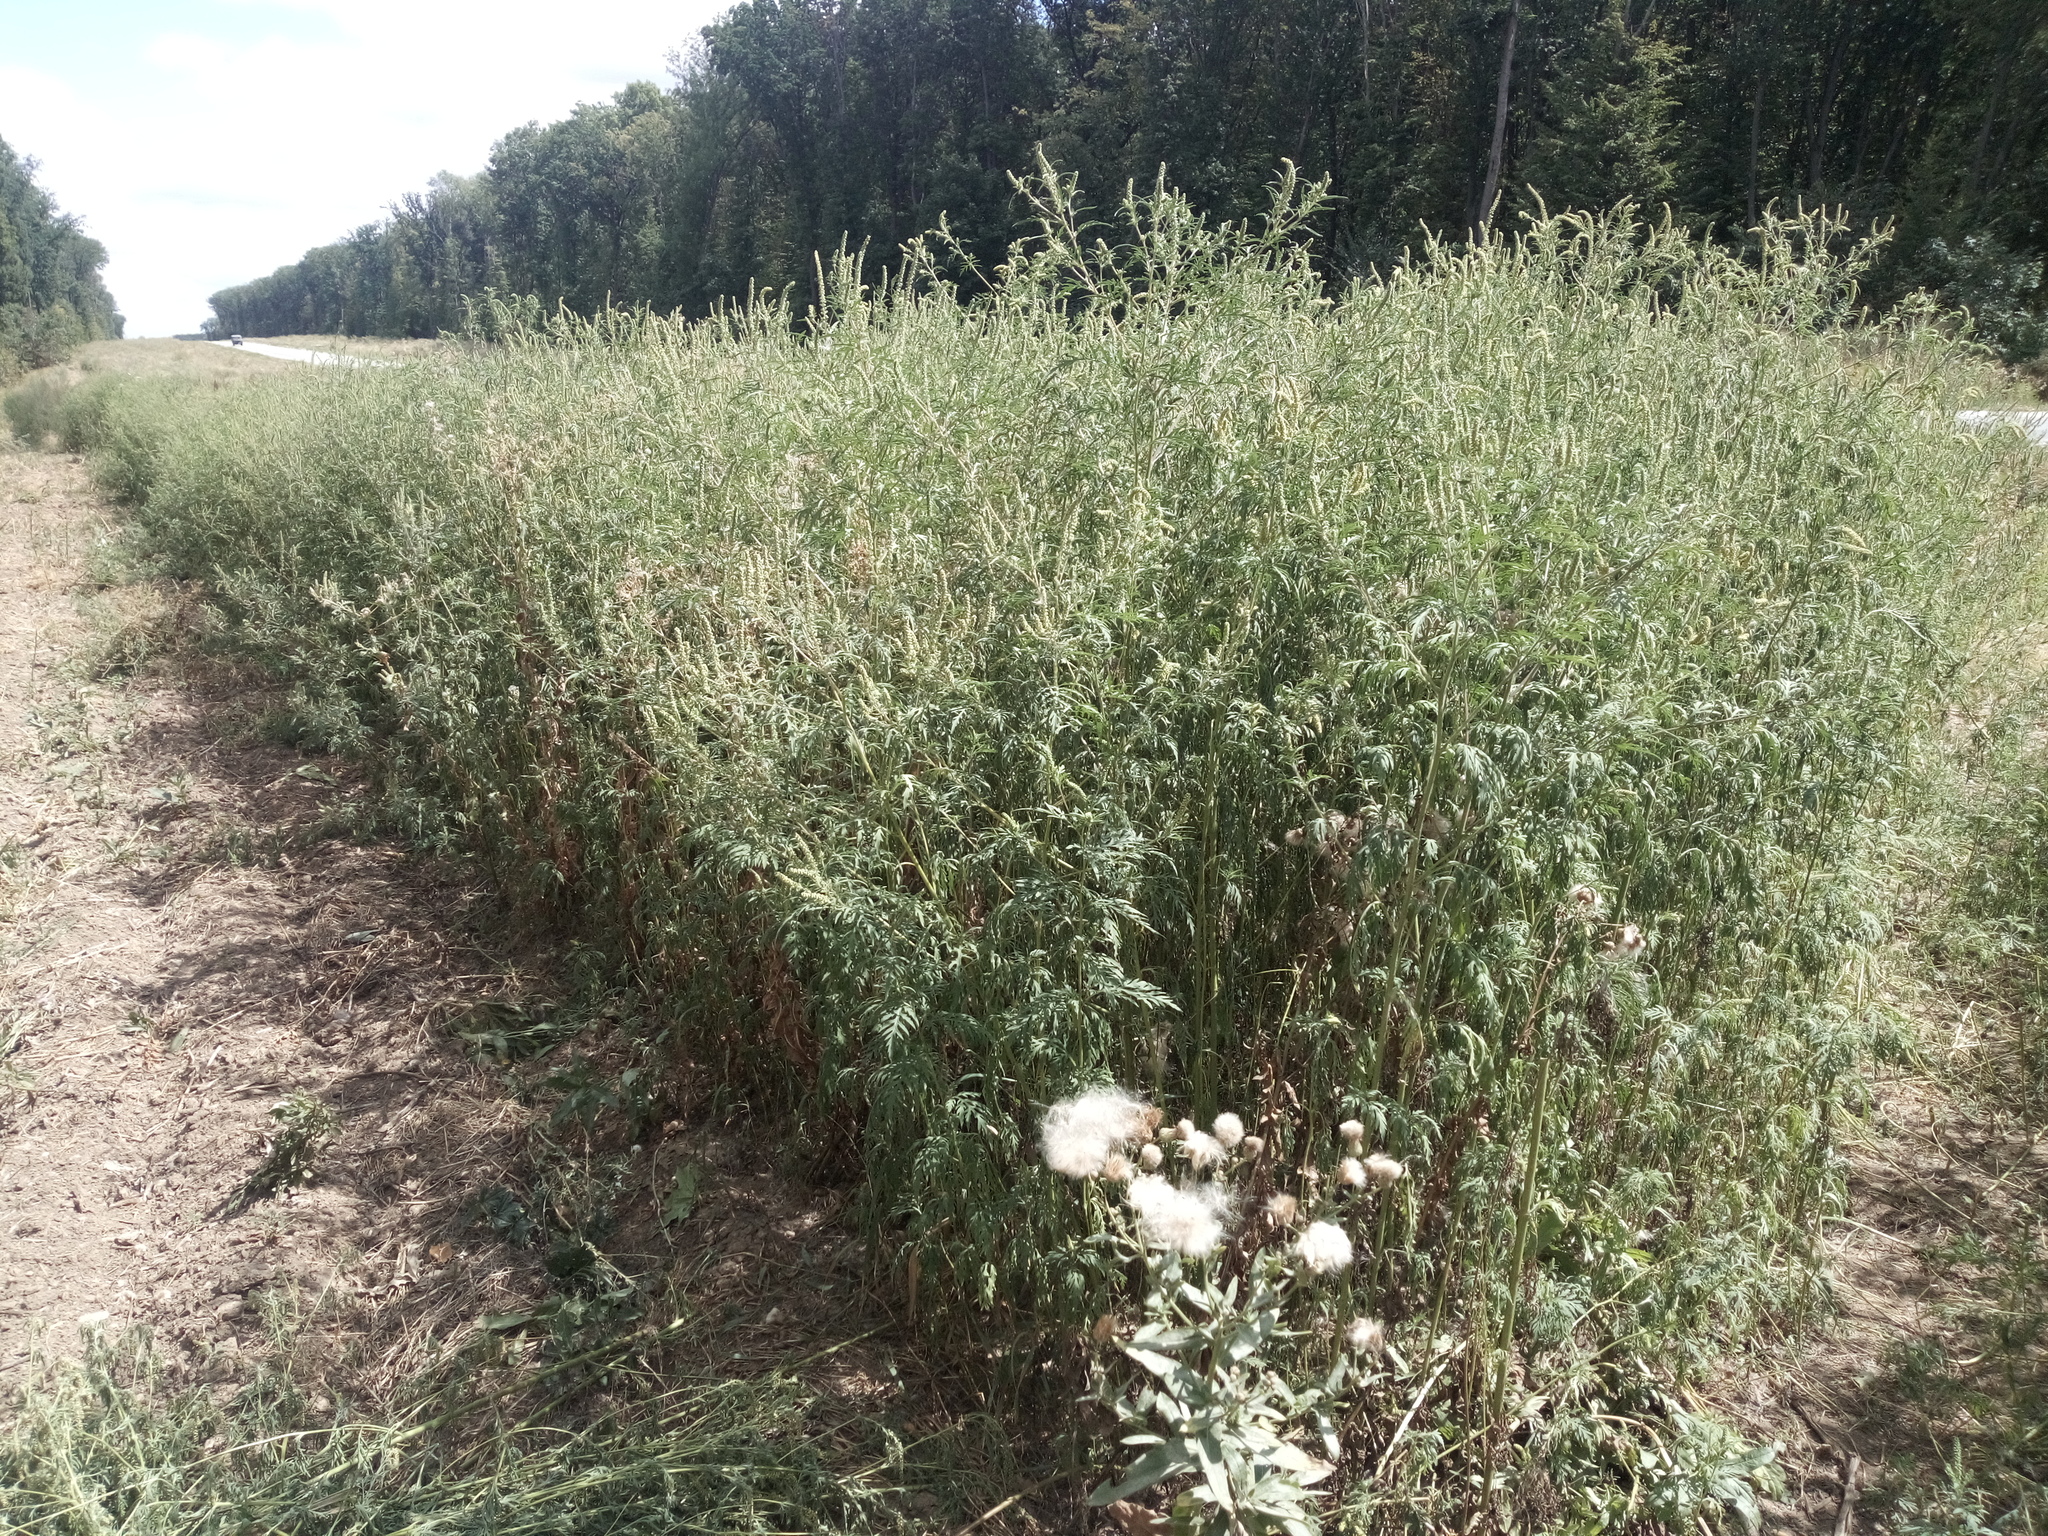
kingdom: Plantae
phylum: Tracheophyta
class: Magnoliopsida
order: Asterales
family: Asteraceae
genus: Ambrosia
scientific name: Ambrosia artemisiifolia
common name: Annual ragweed
